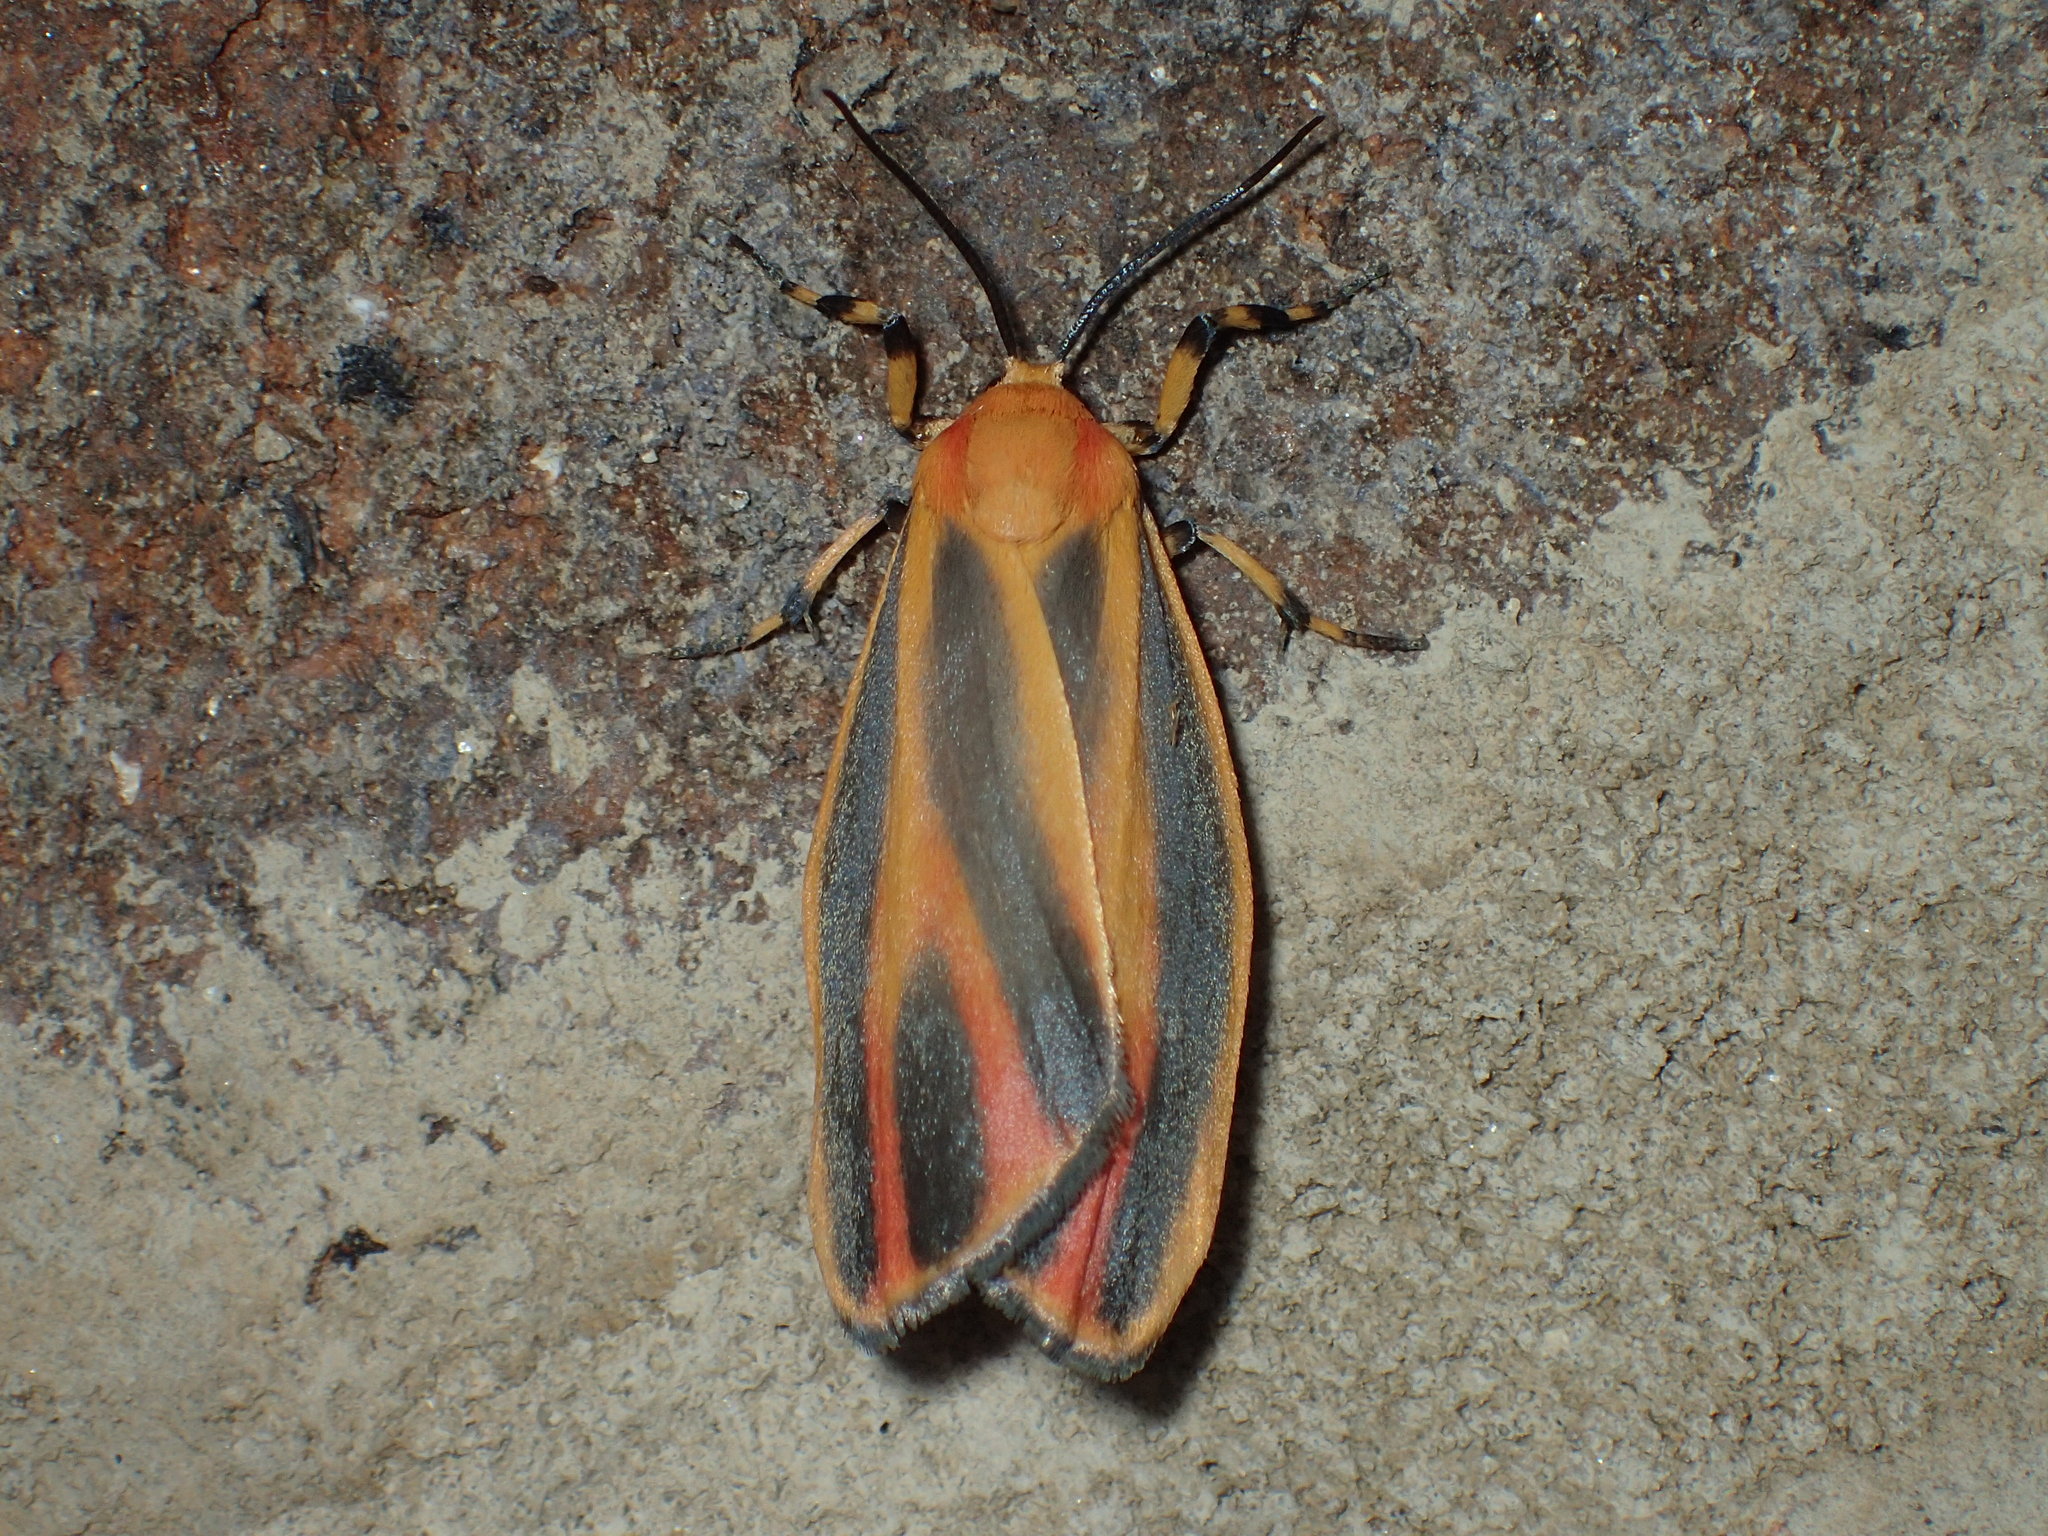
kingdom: Animalia
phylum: Arthropoda
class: Insecta
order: Lepidoptera
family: Erebidae
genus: Hypoprepia
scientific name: Hypoprepia fucosa
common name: Painted lichen moth
